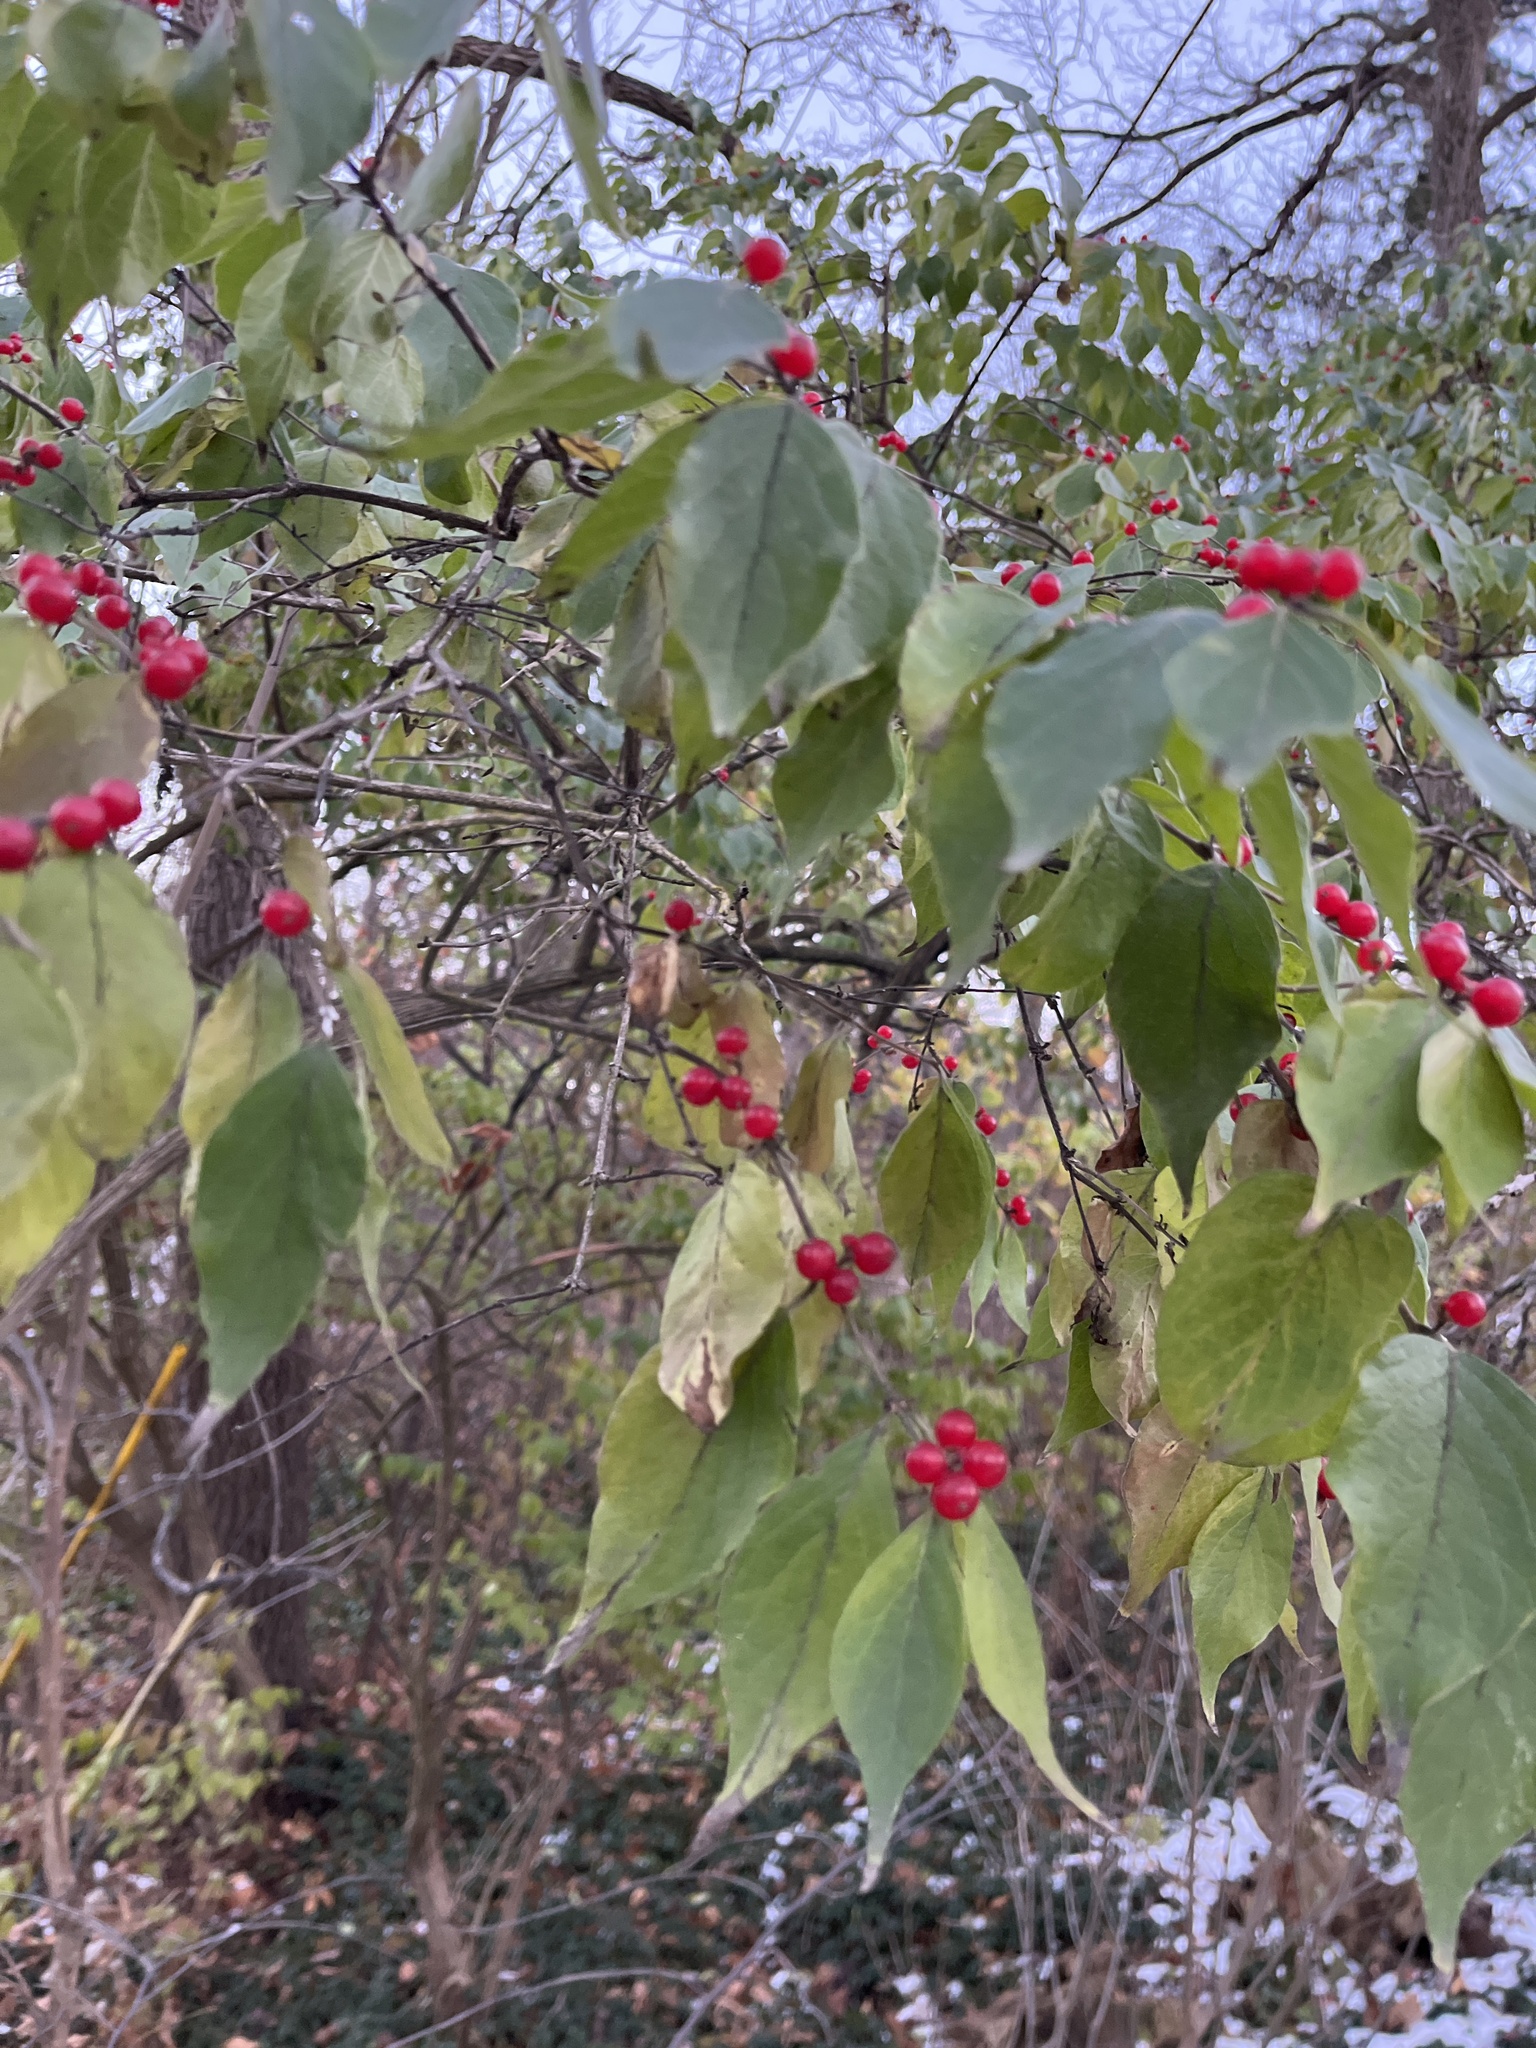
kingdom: Plantae
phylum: Tracheophyta
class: Magnoliopsida
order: Dipsacales
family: Caprifoliaceae
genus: Lonicera
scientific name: Lonicera maackii
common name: Amur honeysuckle
